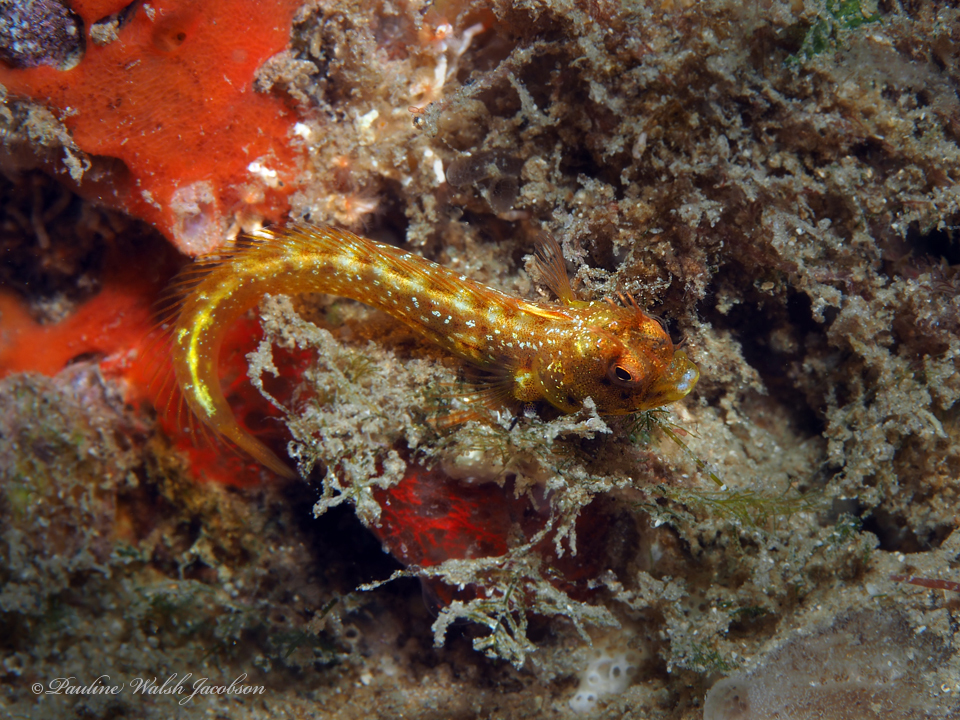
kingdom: Animalia
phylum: Chordata
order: Perciformes
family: Chaenopsidae
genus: Acanthemblemaria
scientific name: Acanthemblemaria aspera
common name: Roughhead blenny
